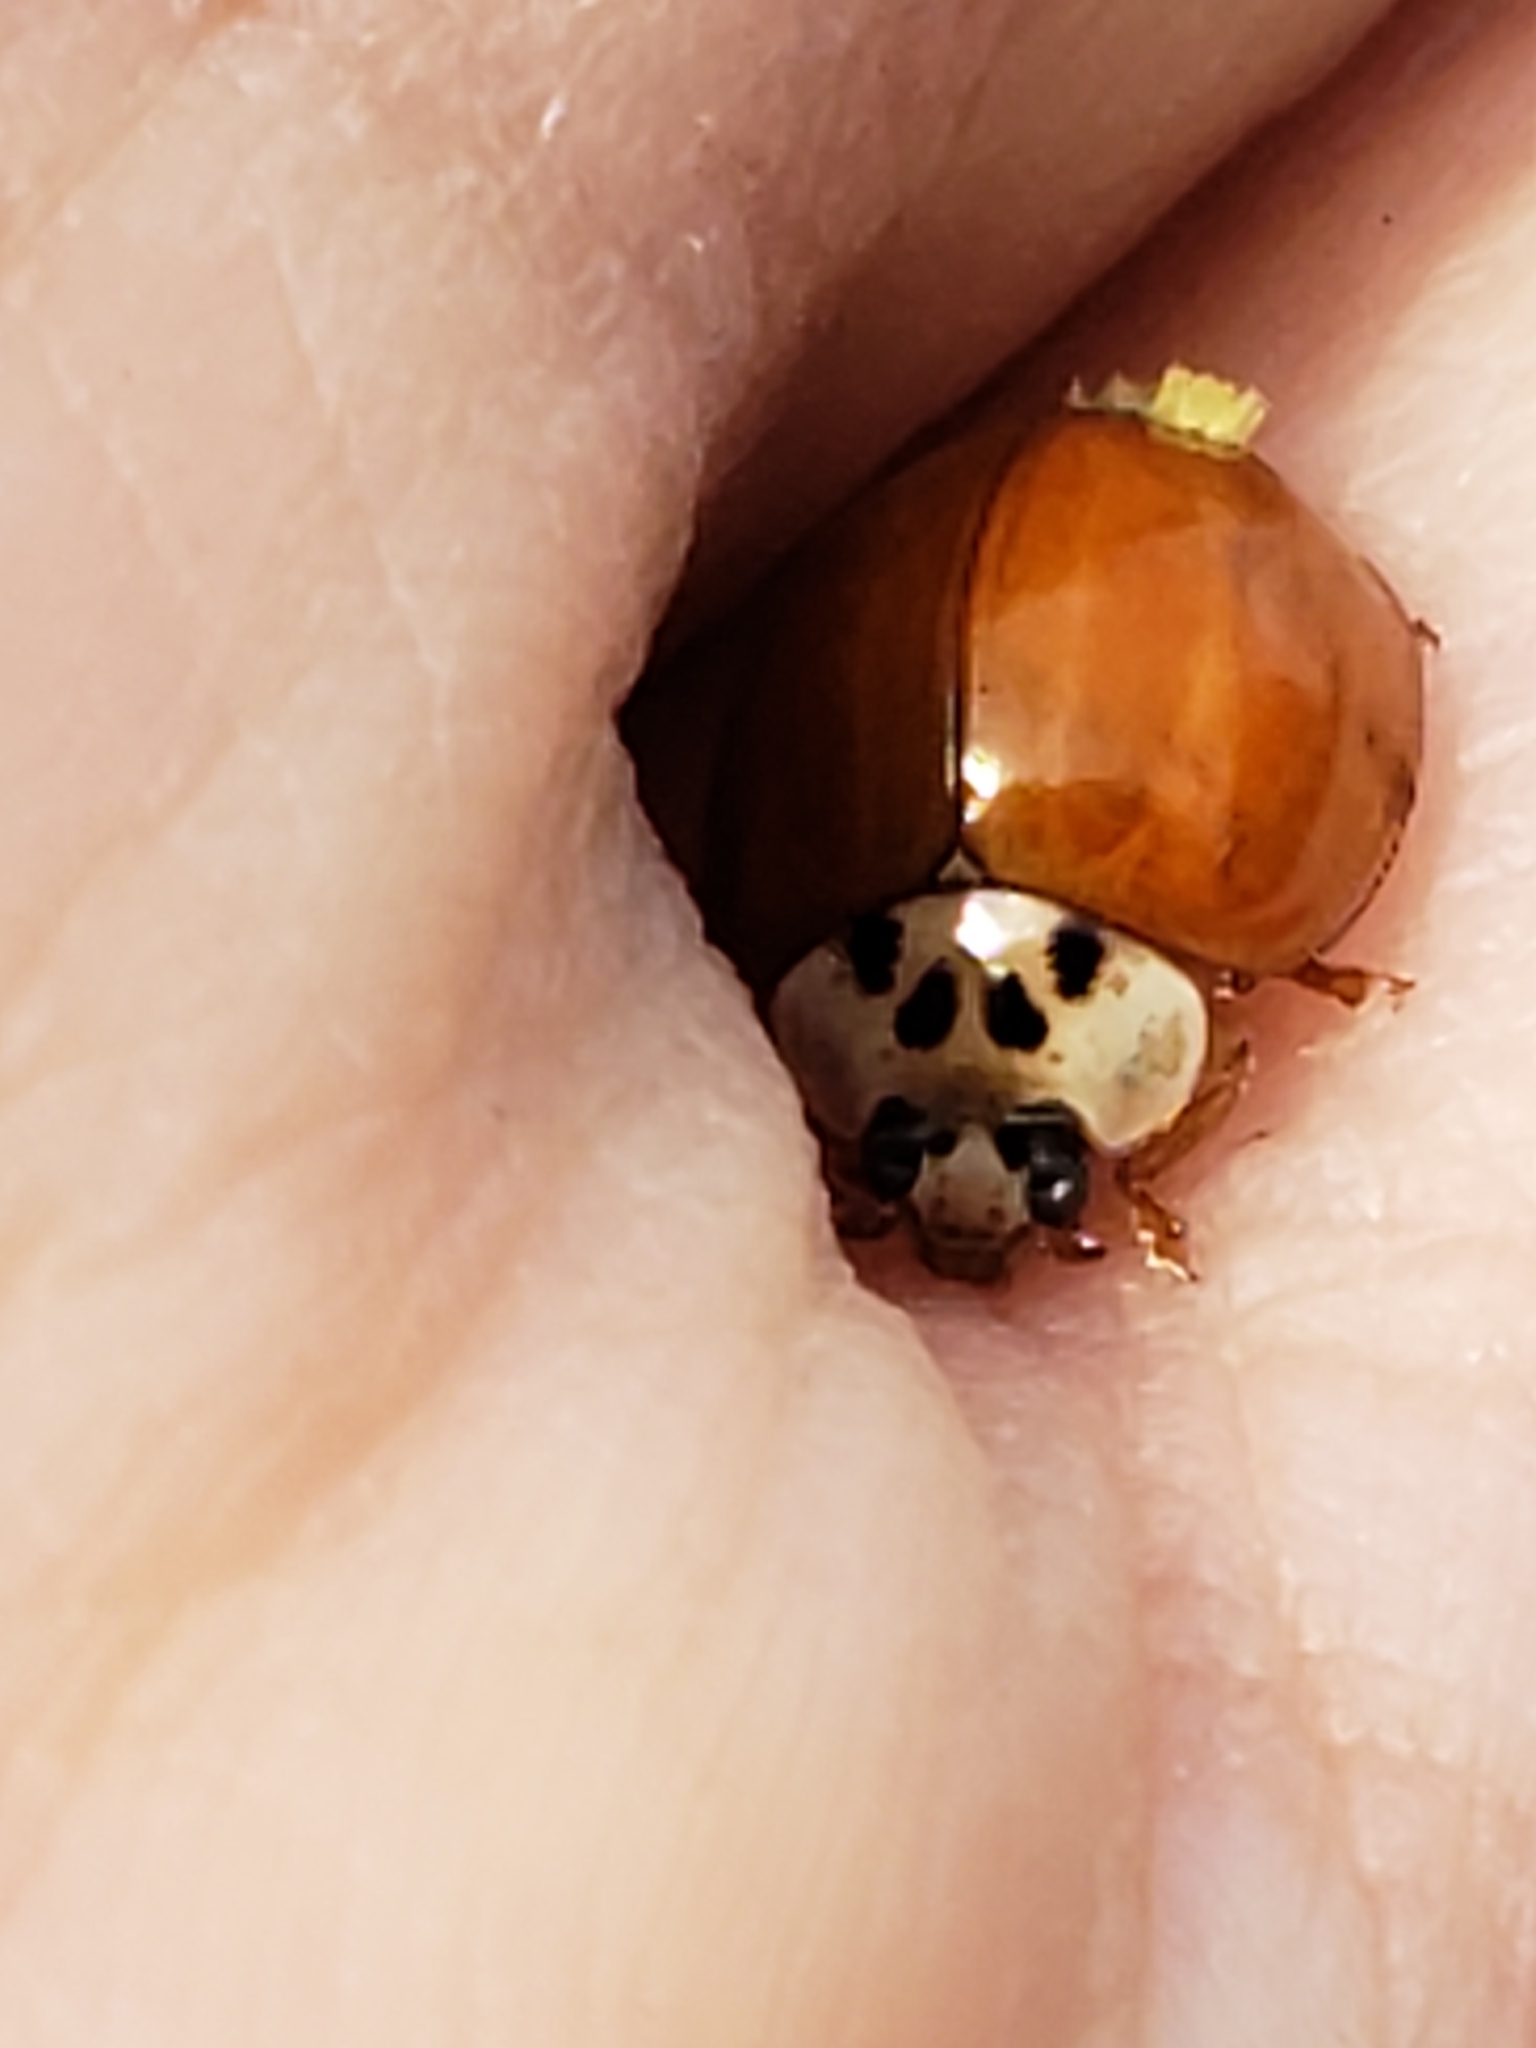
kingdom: Animalia
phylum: Arthropoda
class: Insecta
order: Coleoptera
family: Coccinellidae
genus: Harmonia
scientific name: Harmonia axyridis
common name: Harlequin ladybird
